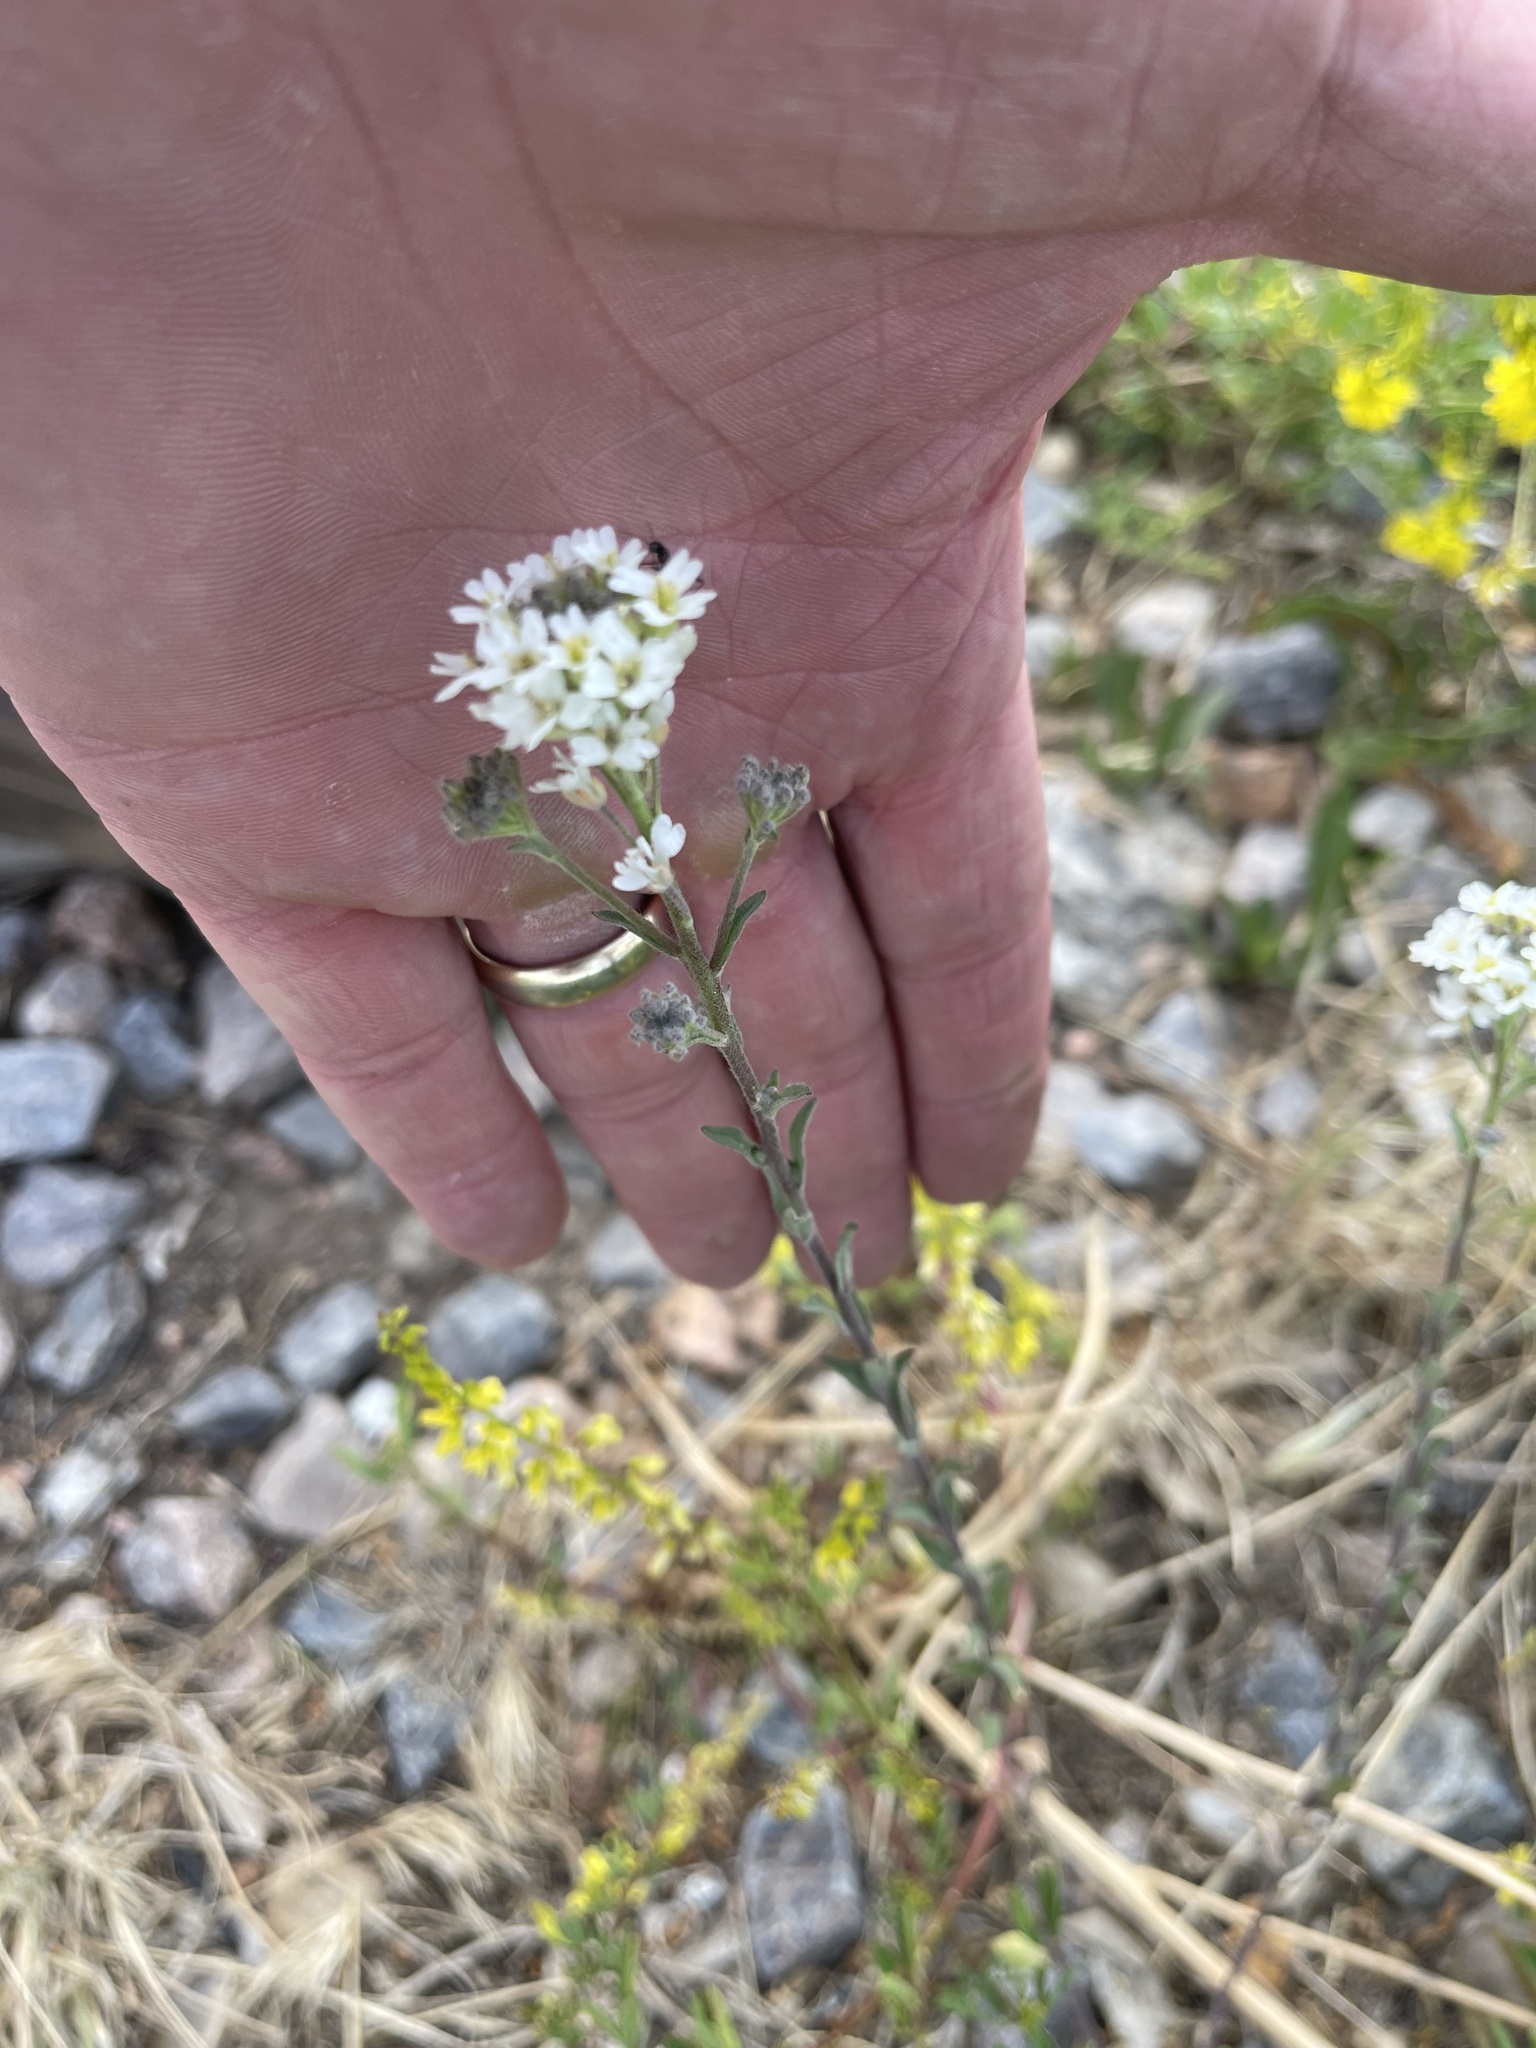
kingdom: Plantae
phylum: Tracheophyta
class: Magnoliopsida
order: Brassicales
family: Brassicaceae
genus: Berteroa
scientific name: Berteroa incana
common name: Hoary alison
